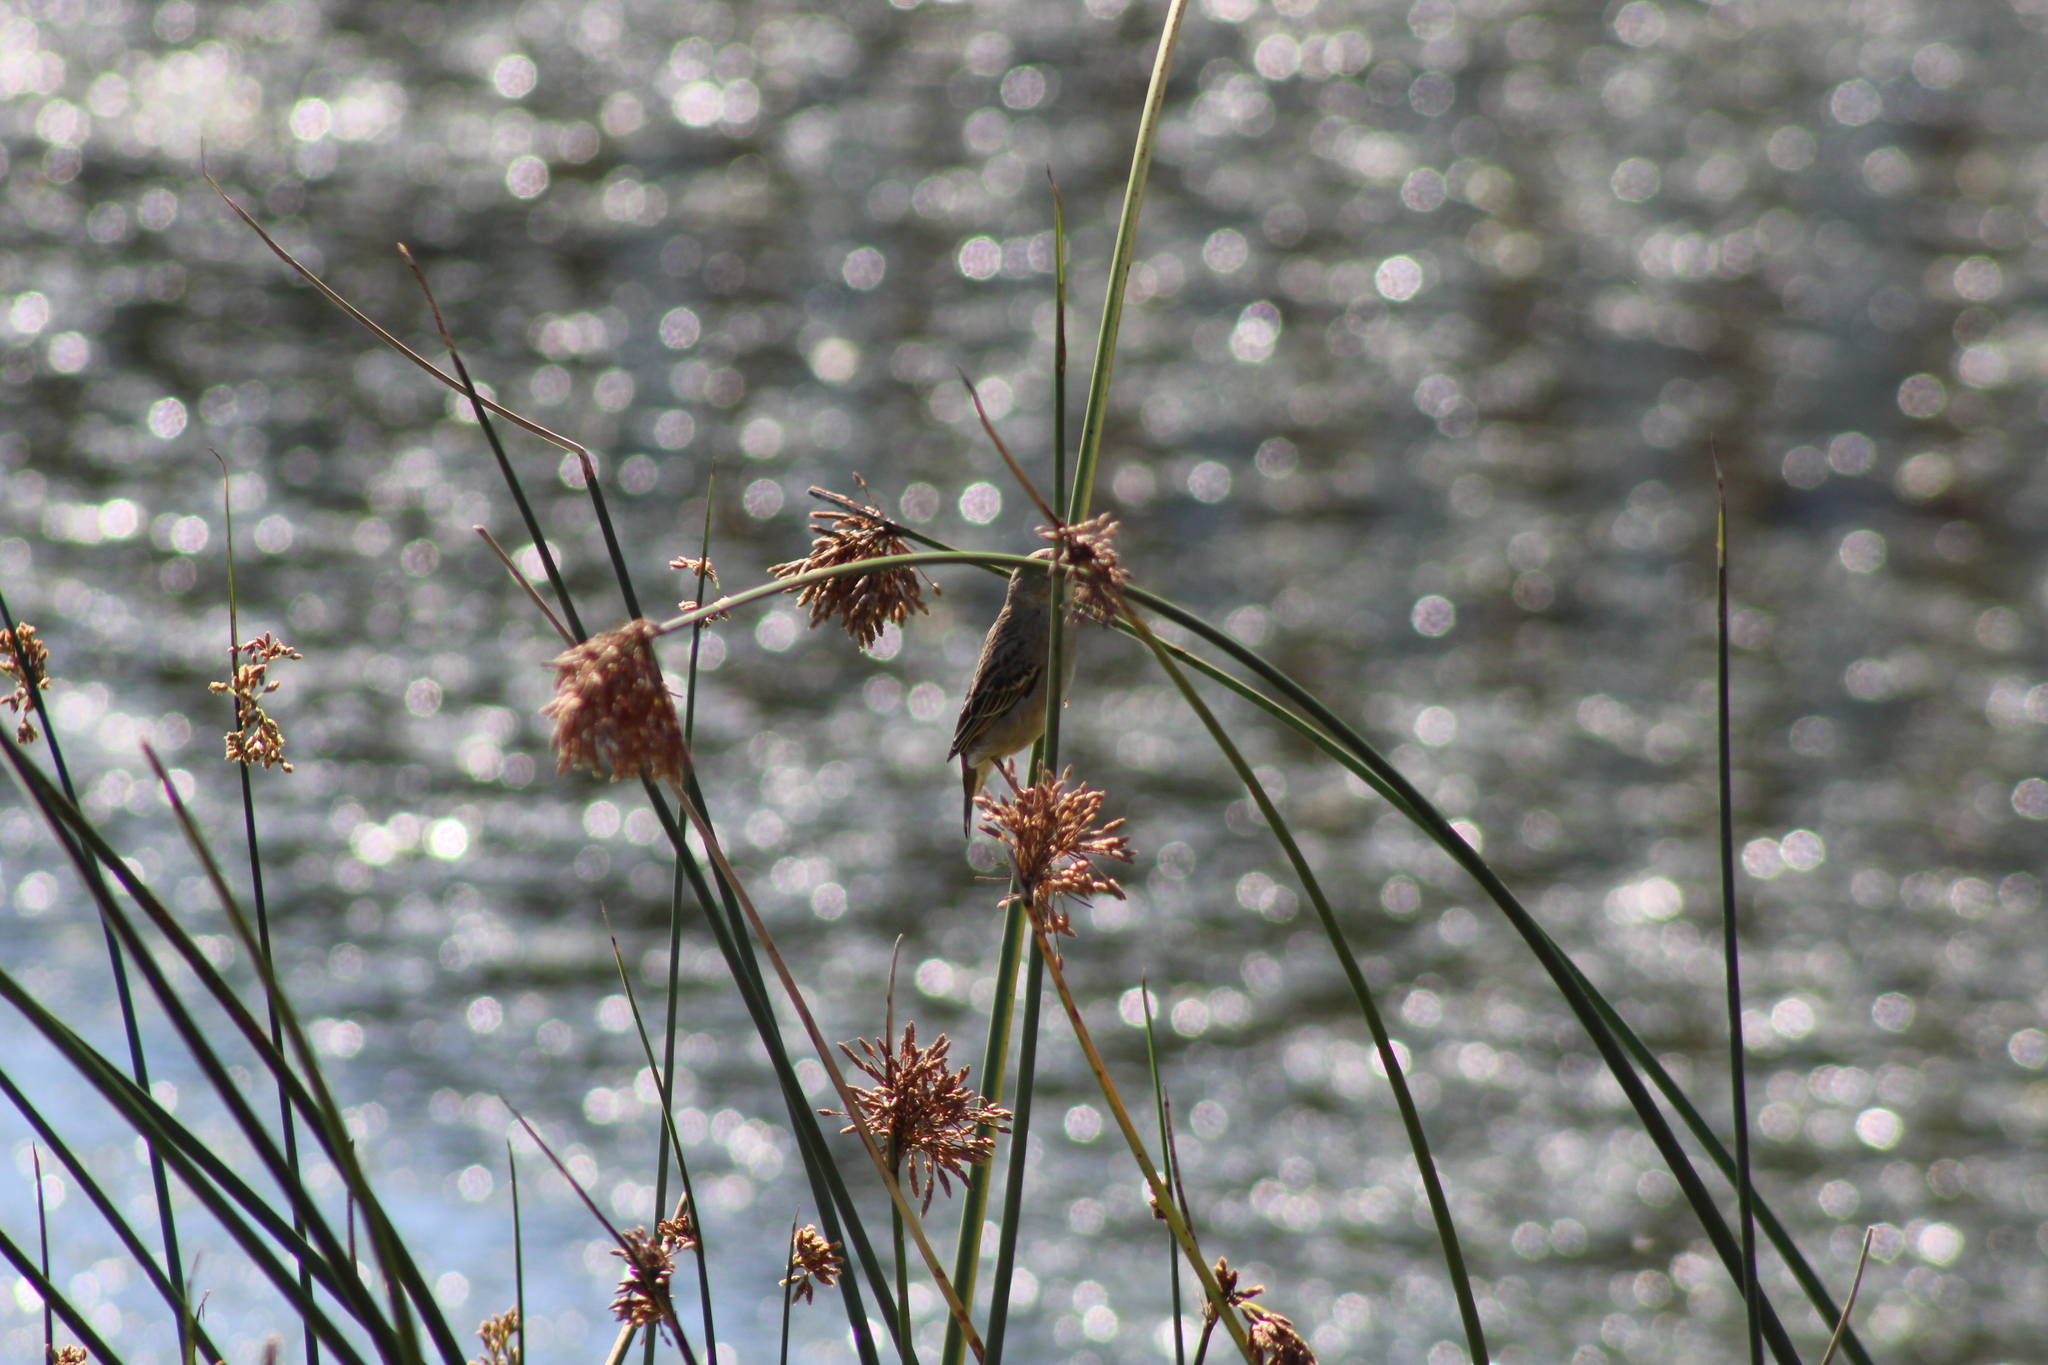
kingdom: Animalia
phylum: Chordata
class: Aves
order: Passeriformes
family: Ploceidae
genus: Euplectes
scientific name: Euplectes orix
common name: Southern red bishop
